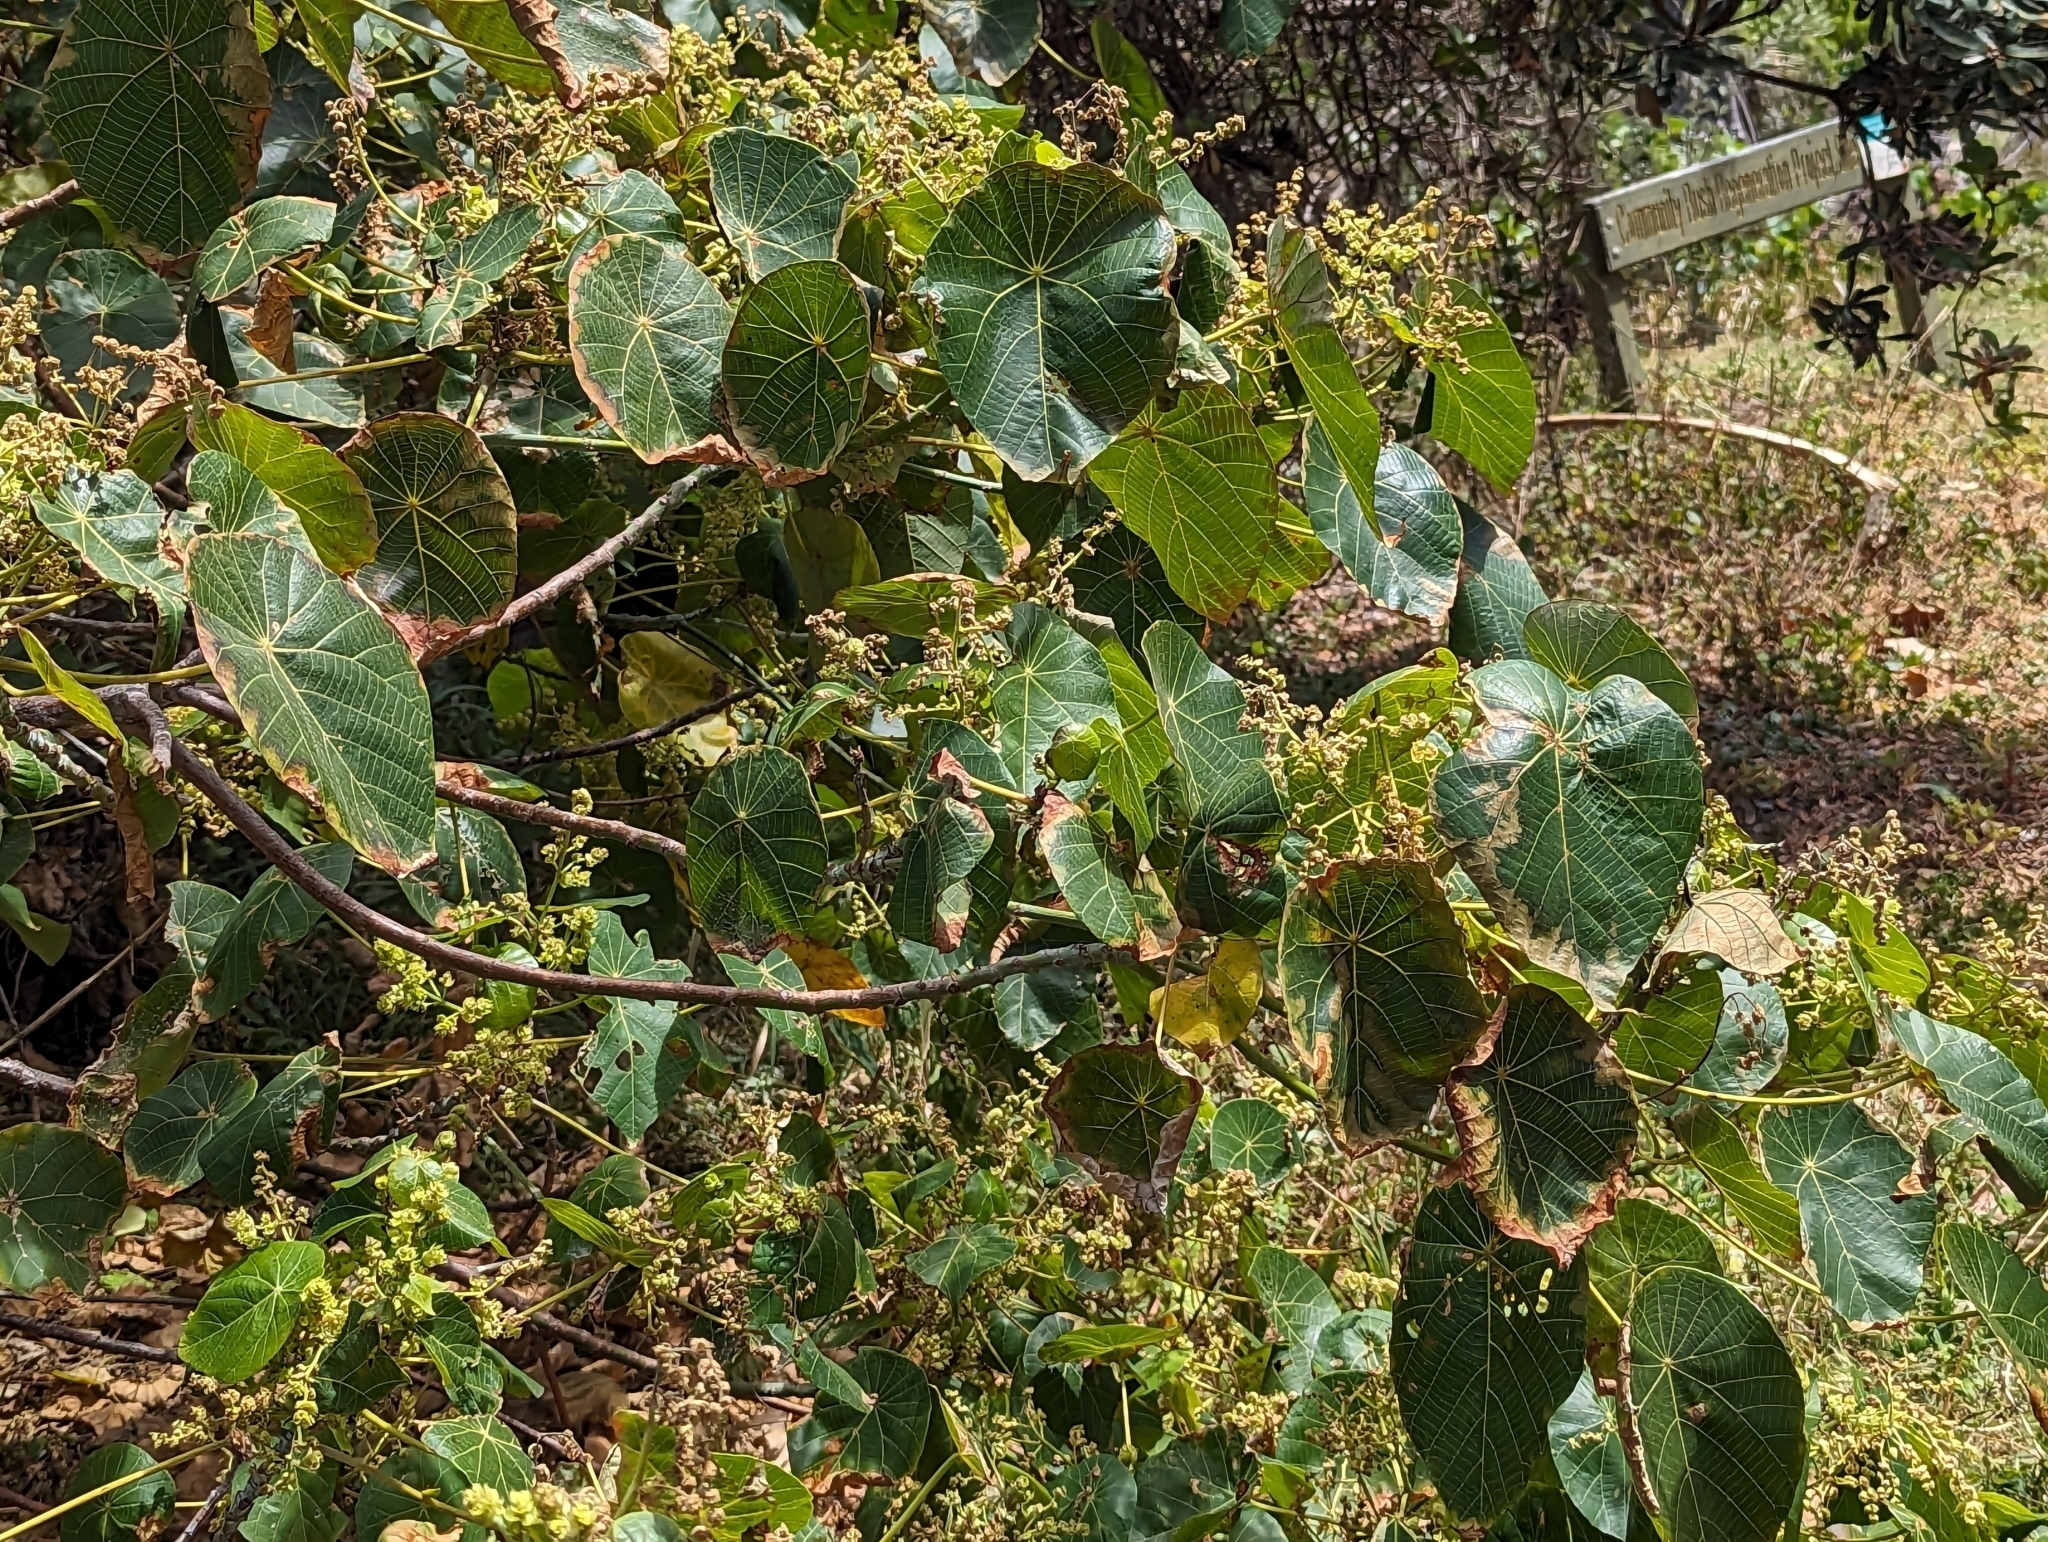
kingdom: Plantae
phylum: Tracheophyta
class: Magnoliopsida
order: Malpighiales
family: Euphorbiaceae
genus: Macaranga
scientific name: Macaranga tanarius
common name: Parasol leaf tree
